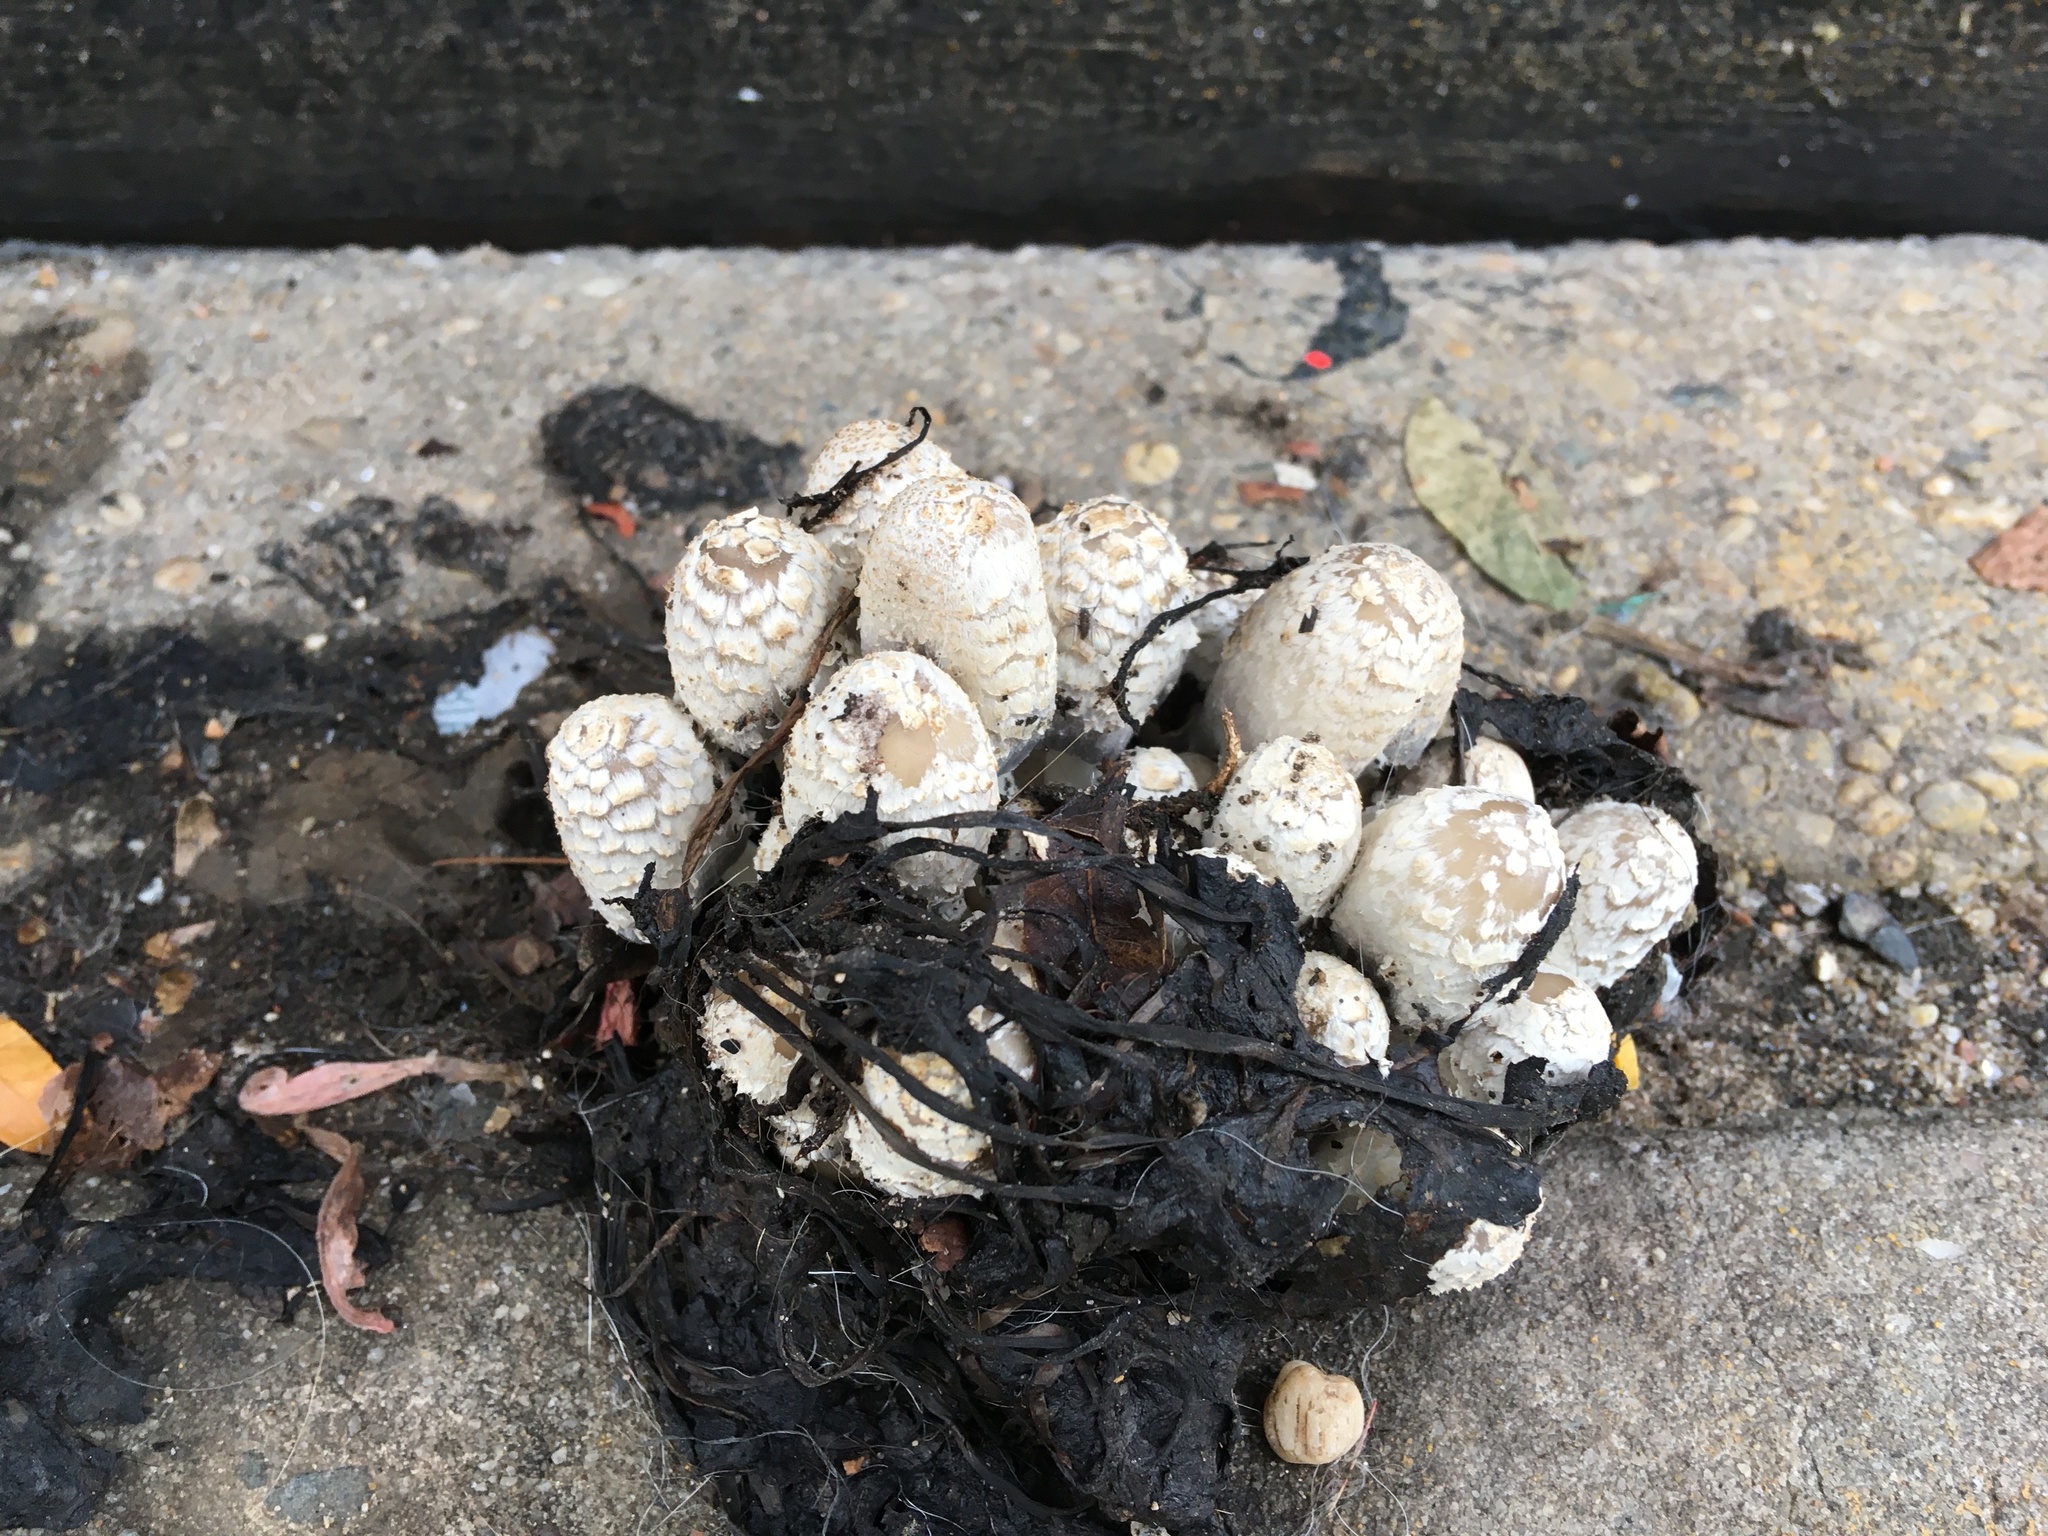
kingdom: Fungi
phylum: Basidiomycota
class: Agaricomycetes
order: Agaricales
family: Psathyrellaceae
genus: Coprinopsis
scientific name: Coprinopsis variegata
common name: Scaly ink cap
